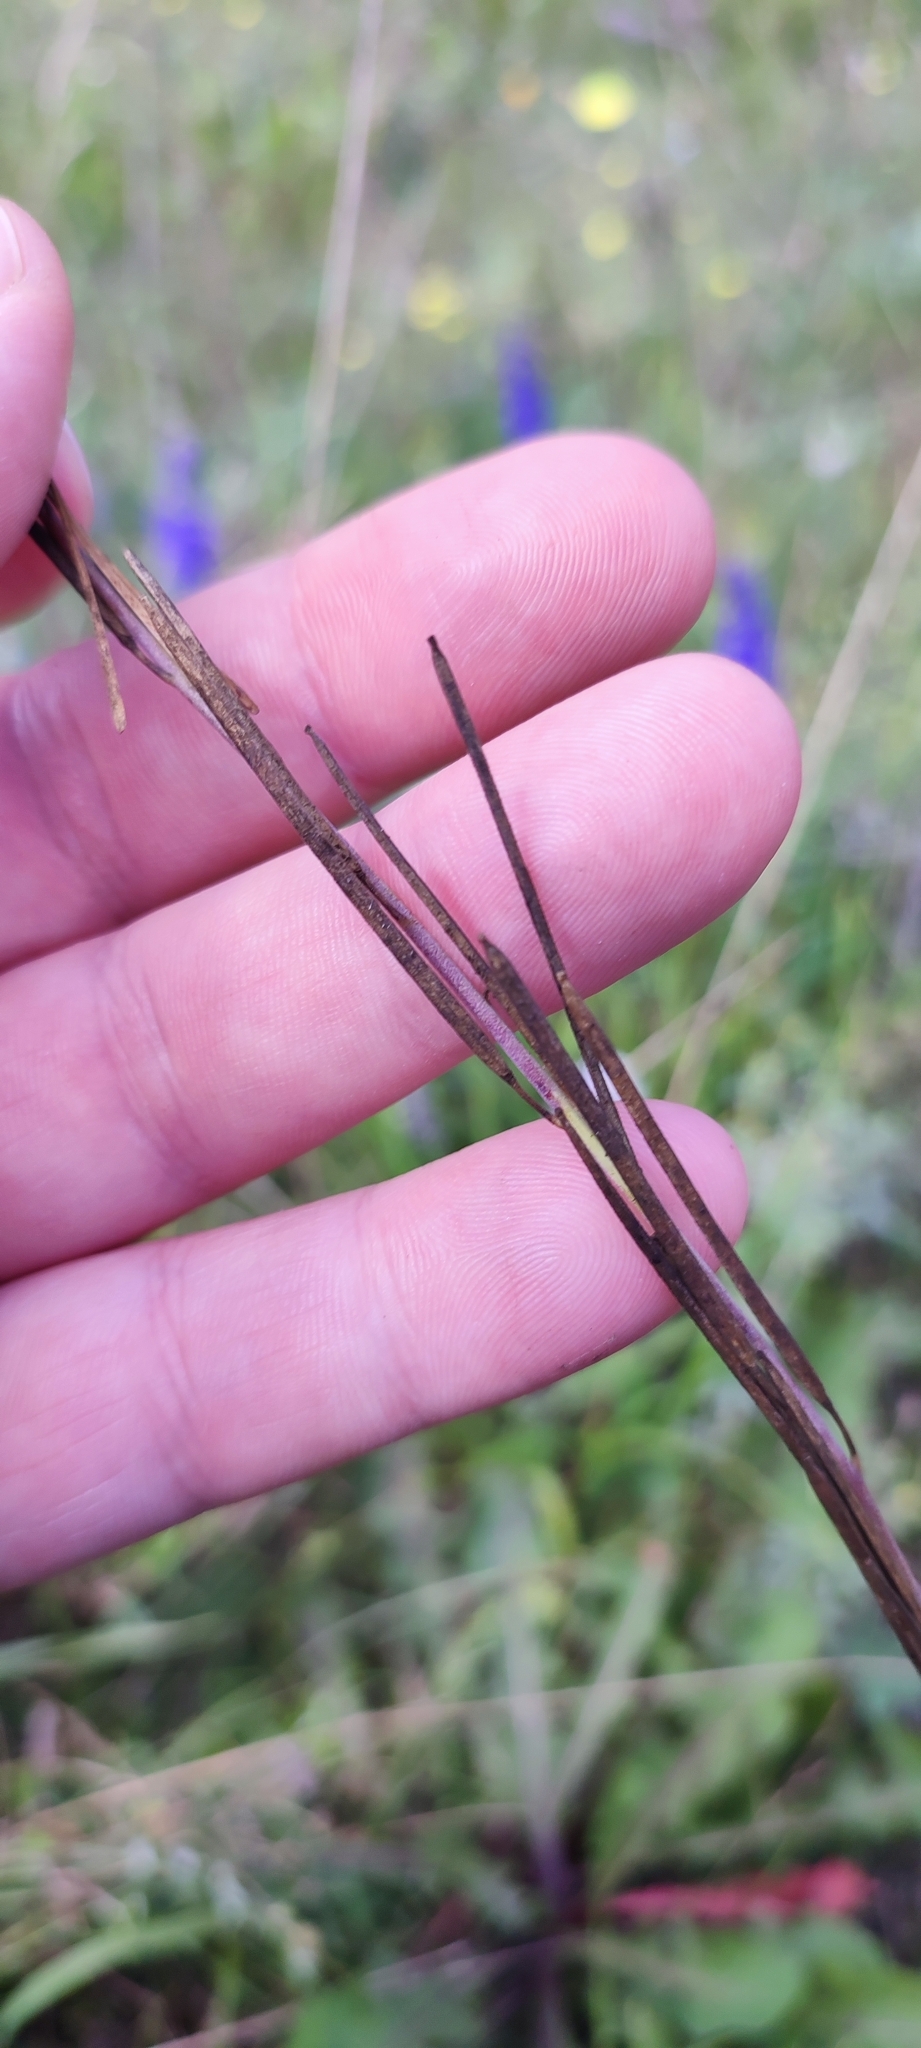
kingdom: Plantae
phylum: Tracheophyta
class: Magnoliopsida
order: Brassicales
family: Brassicaceae
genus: Turritis
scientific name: Turritis glabra
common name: Tower rockcress
